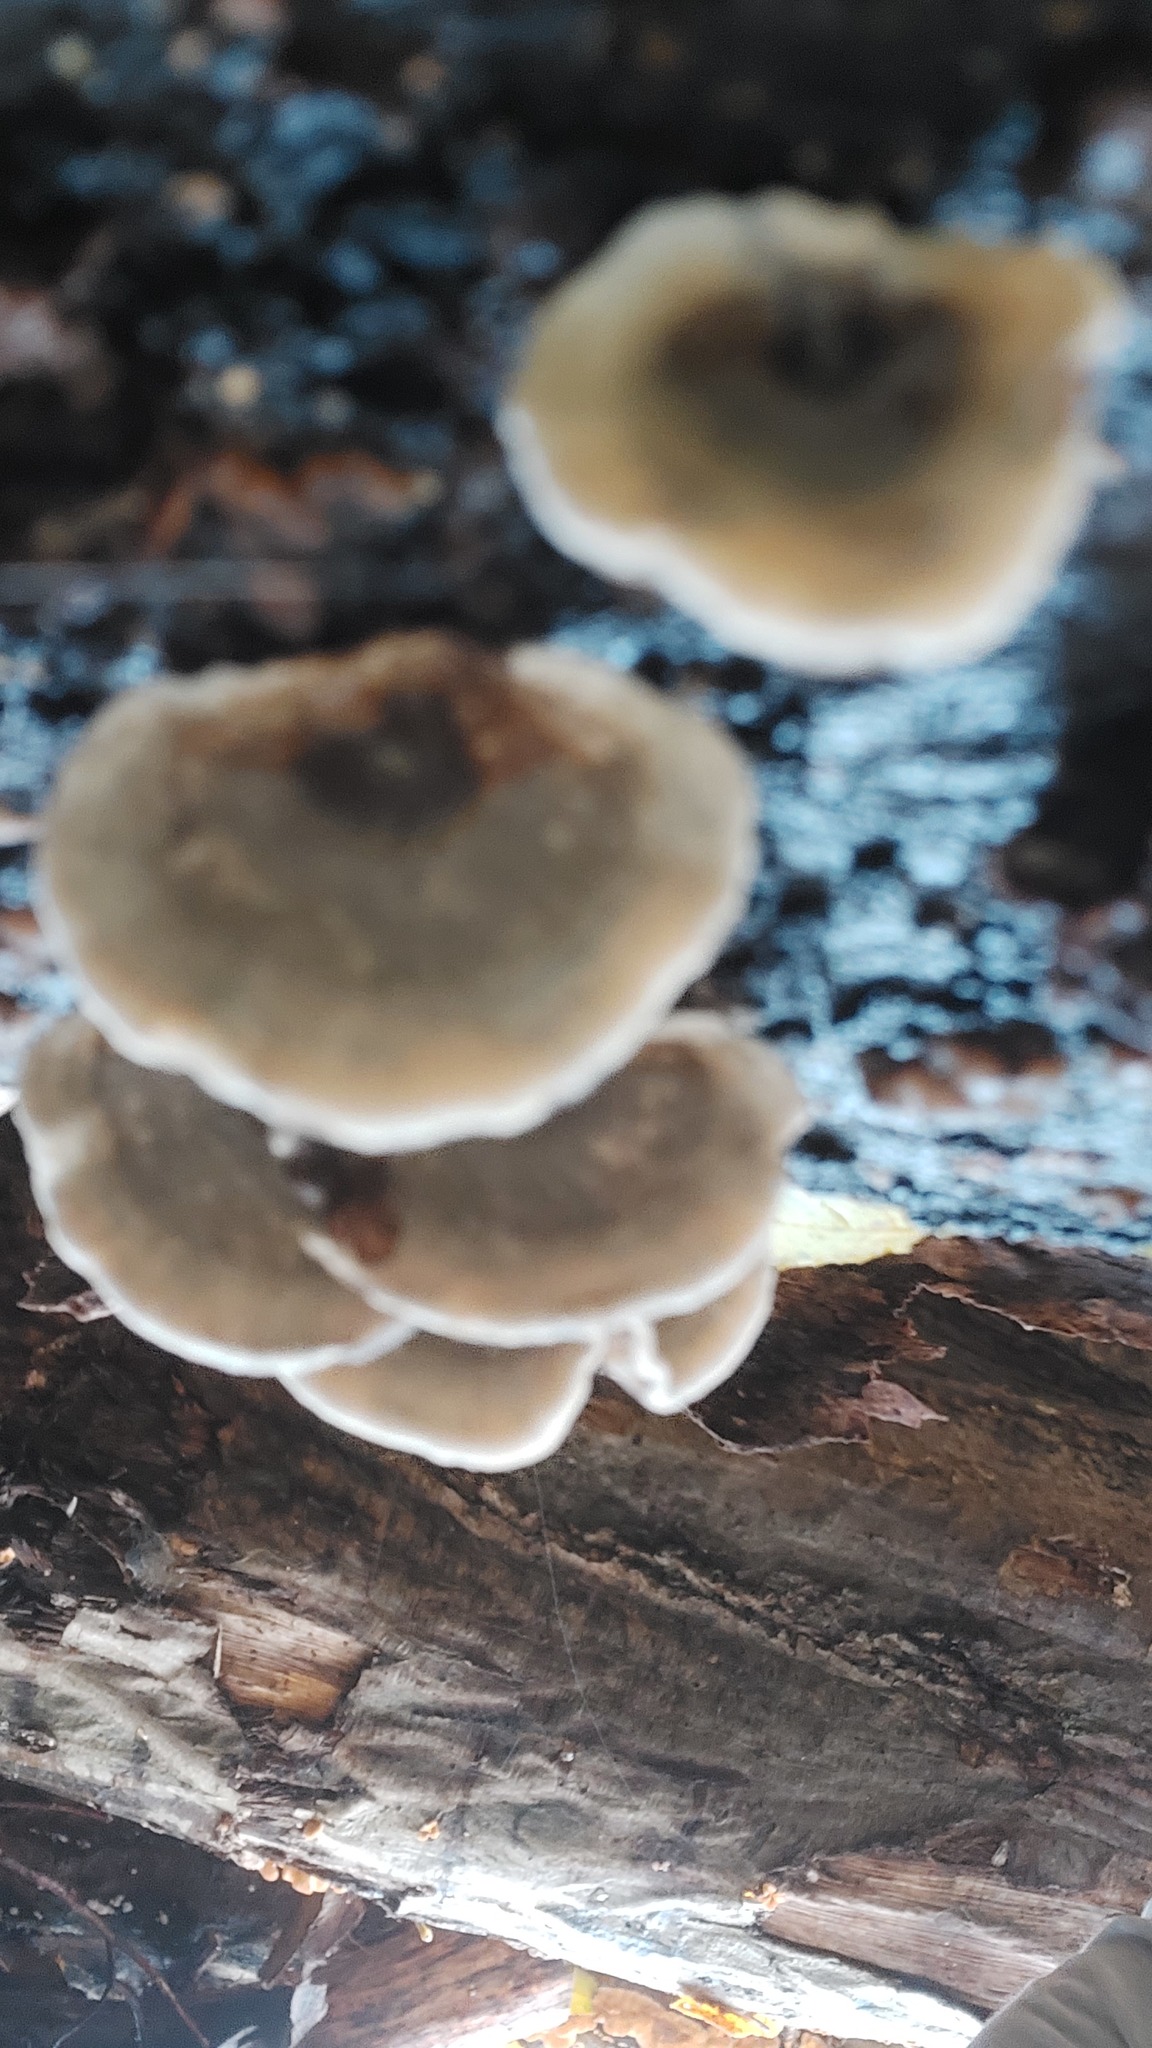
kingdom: Fungi
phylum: Basidiomycota
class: Agaricomycetes
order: Polyporales
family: Phanerochaetaceae
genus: Bjerkandera
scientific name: Bjerkandera adusta
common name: Smoky bracket
